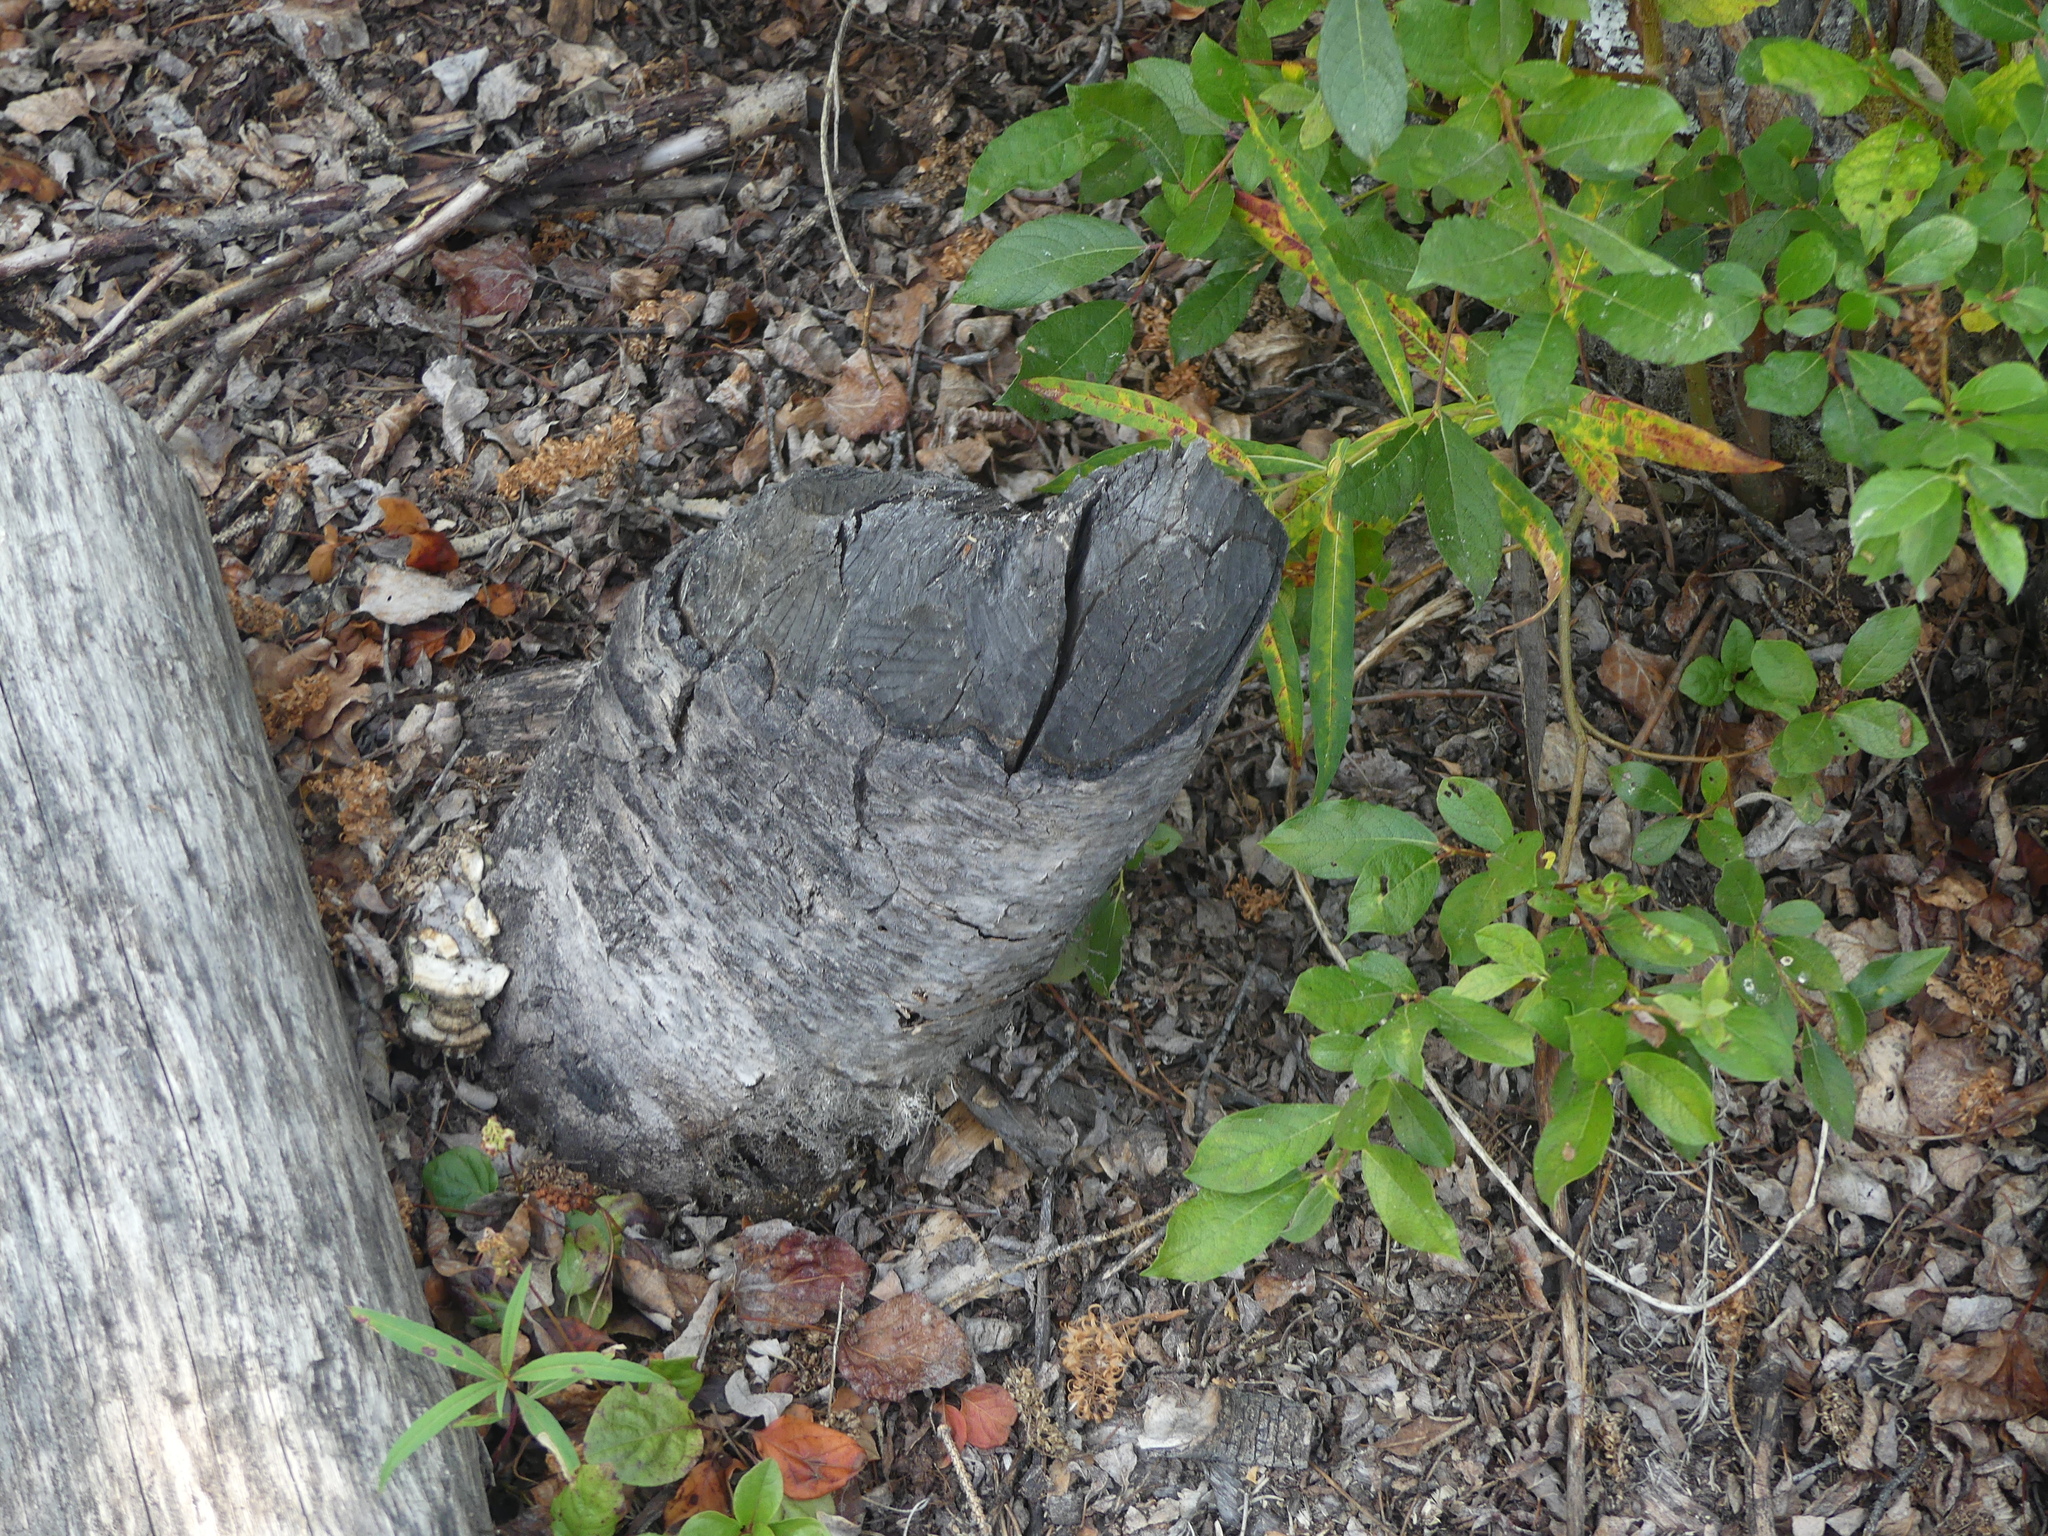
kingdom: Animalia
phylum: Chordata
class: Mammalia
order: Rodentia
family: Castoridae
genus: Castor
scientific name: Castor canadensis
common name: American beaver
